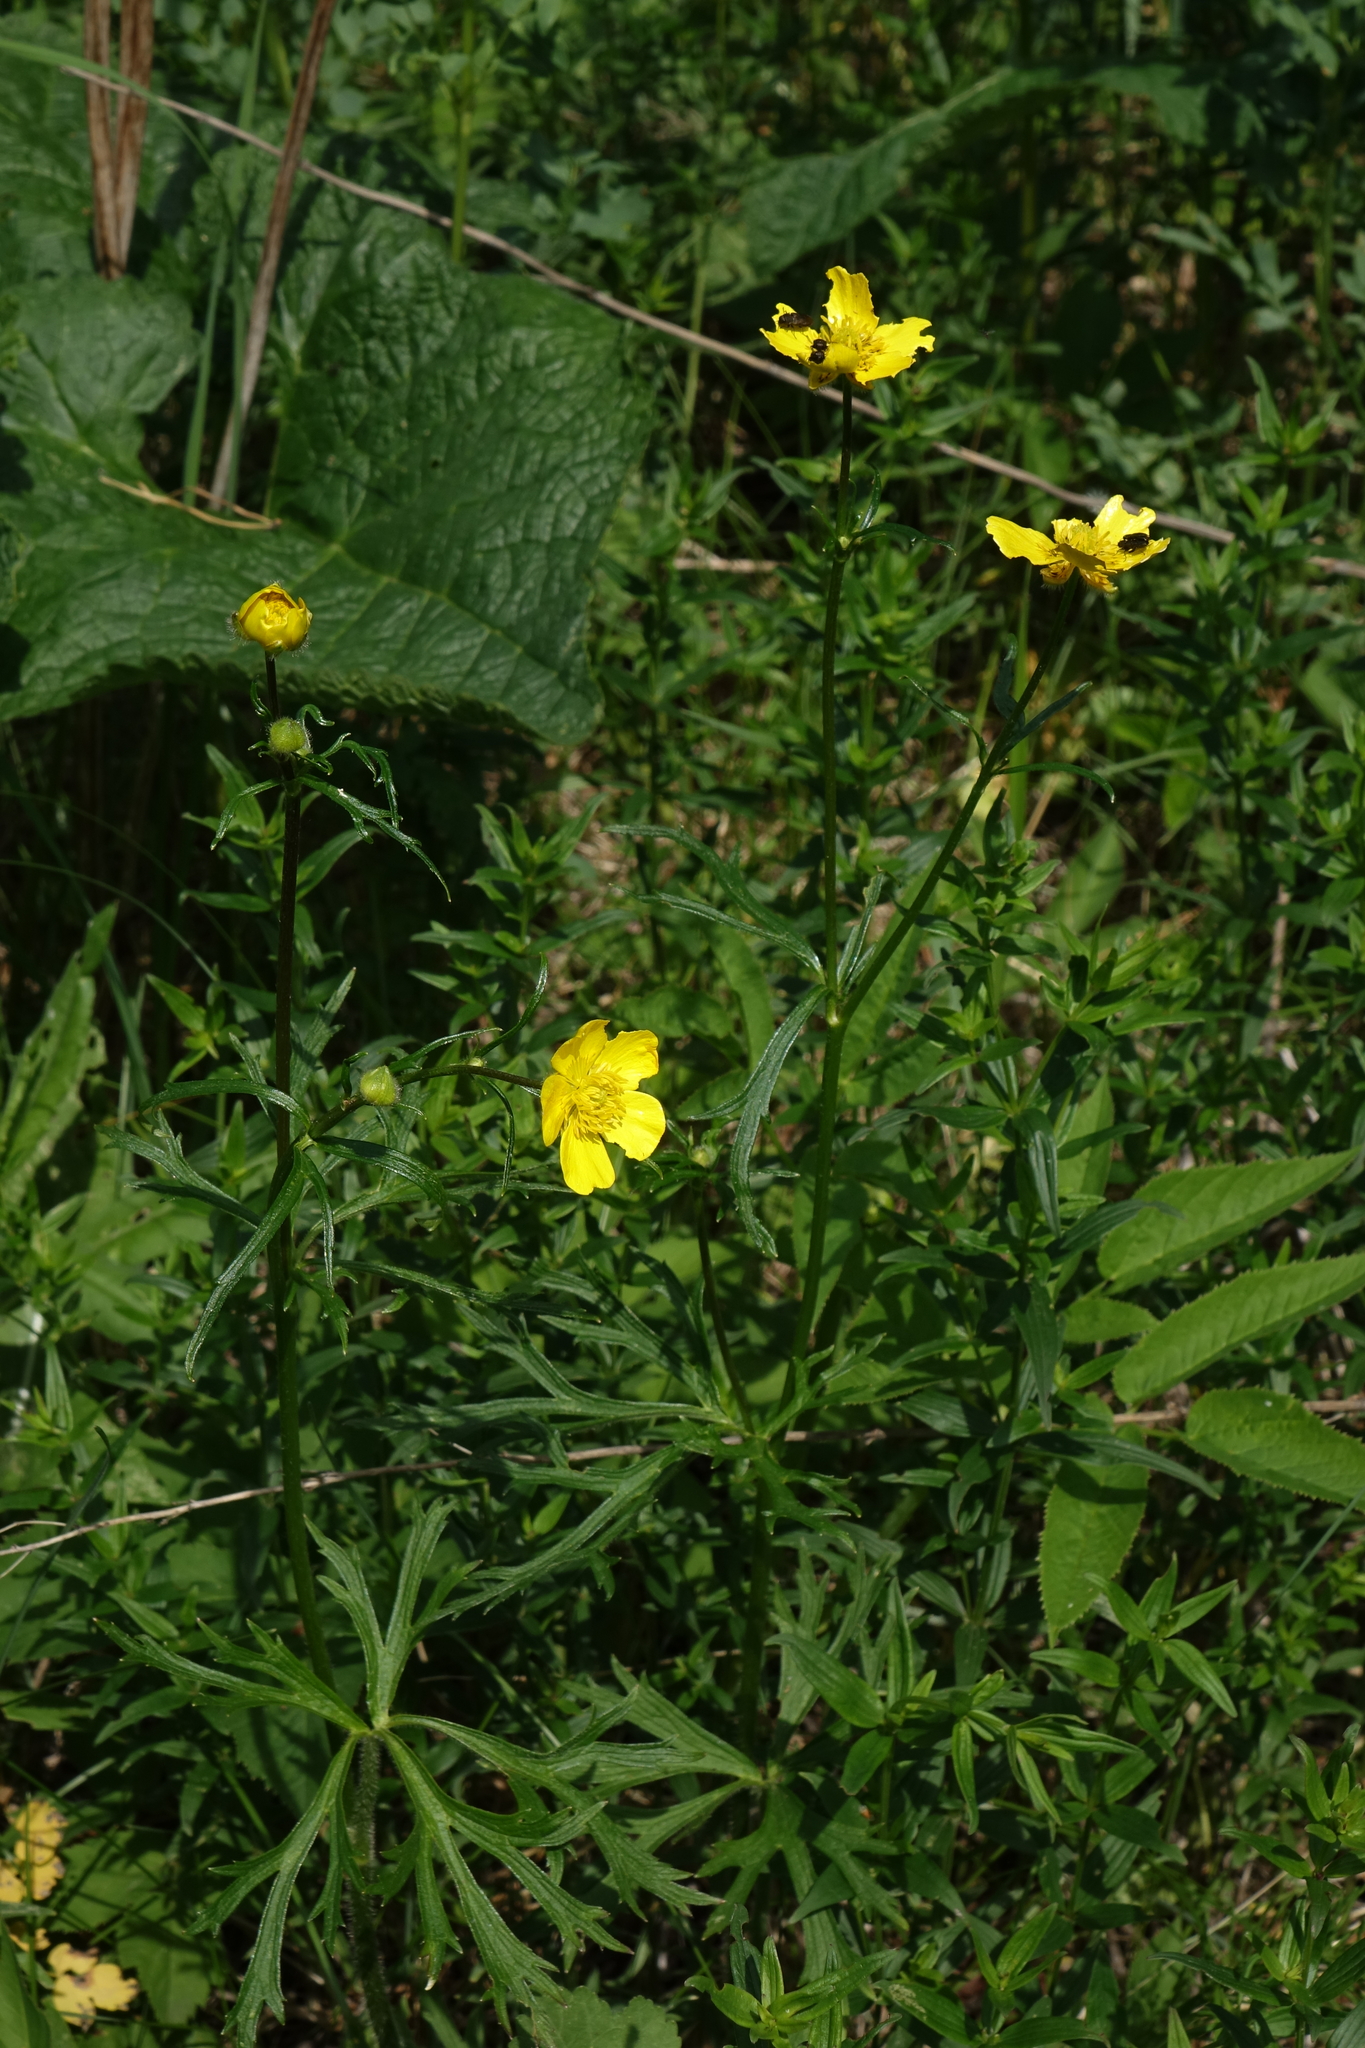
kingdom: Plantae
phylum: Tracheophyta
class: Magnoliopsida
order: Ranunculales
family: Ranunculaceae
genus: Ranunculus
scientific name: Ranunculus polyanthemos
